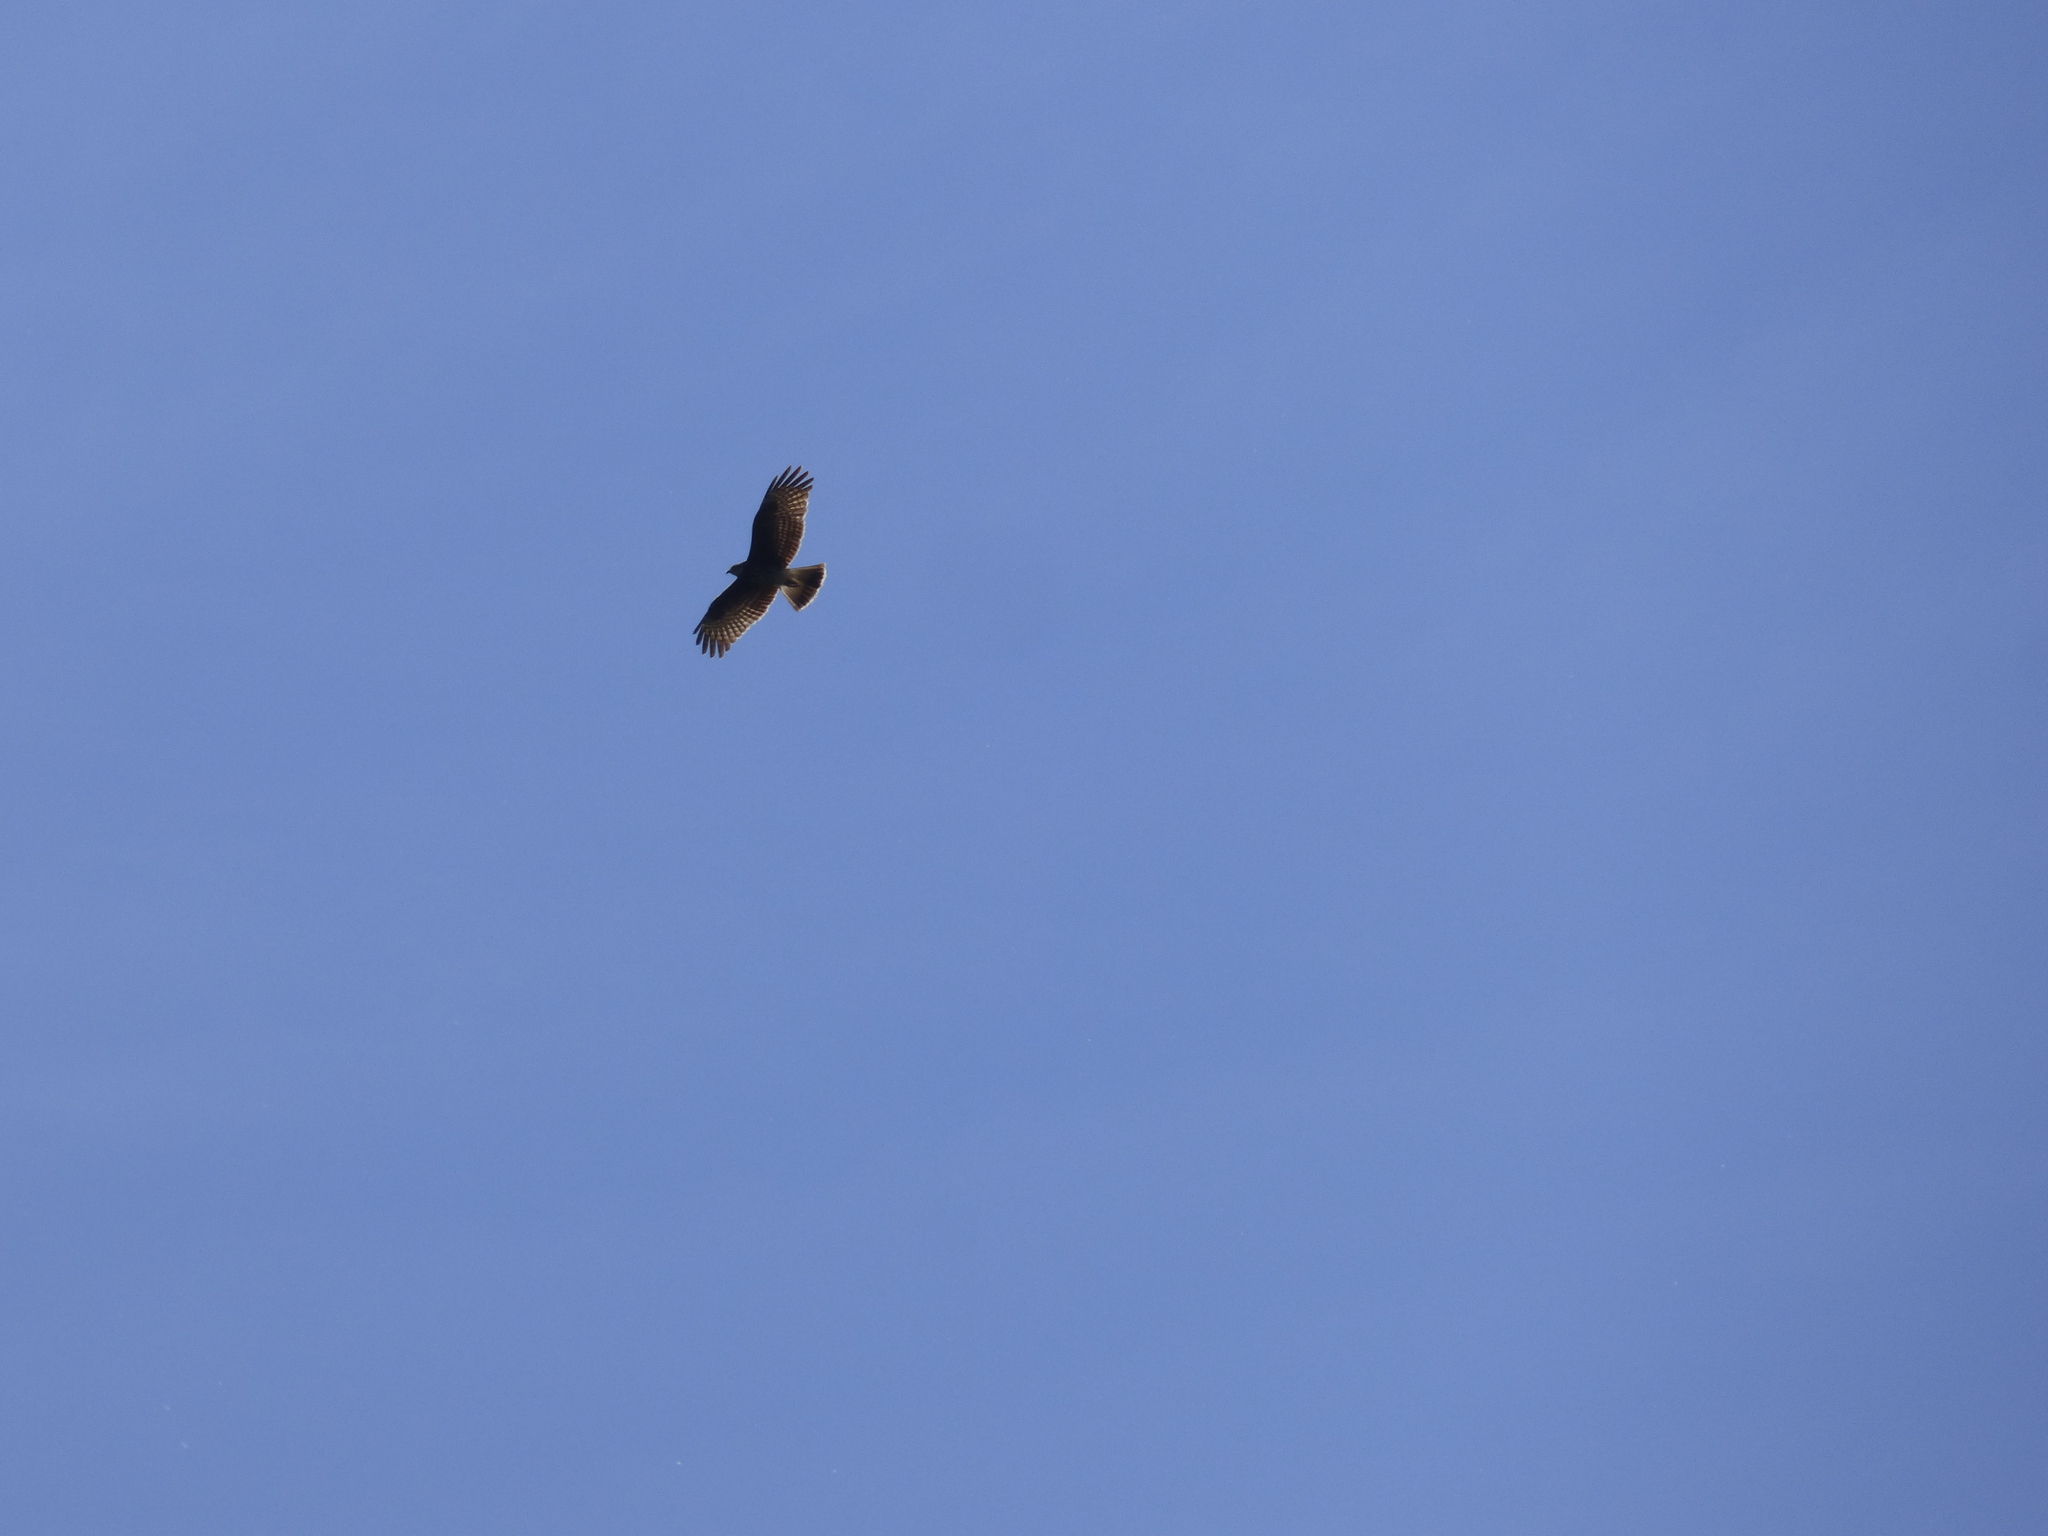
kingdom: Animalia
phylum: Chordata
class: Aves
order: Accipitriformes
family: Accipitridae
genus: Rostrhamus
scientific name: Rostrhamus sociabilis
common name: Snail kite
